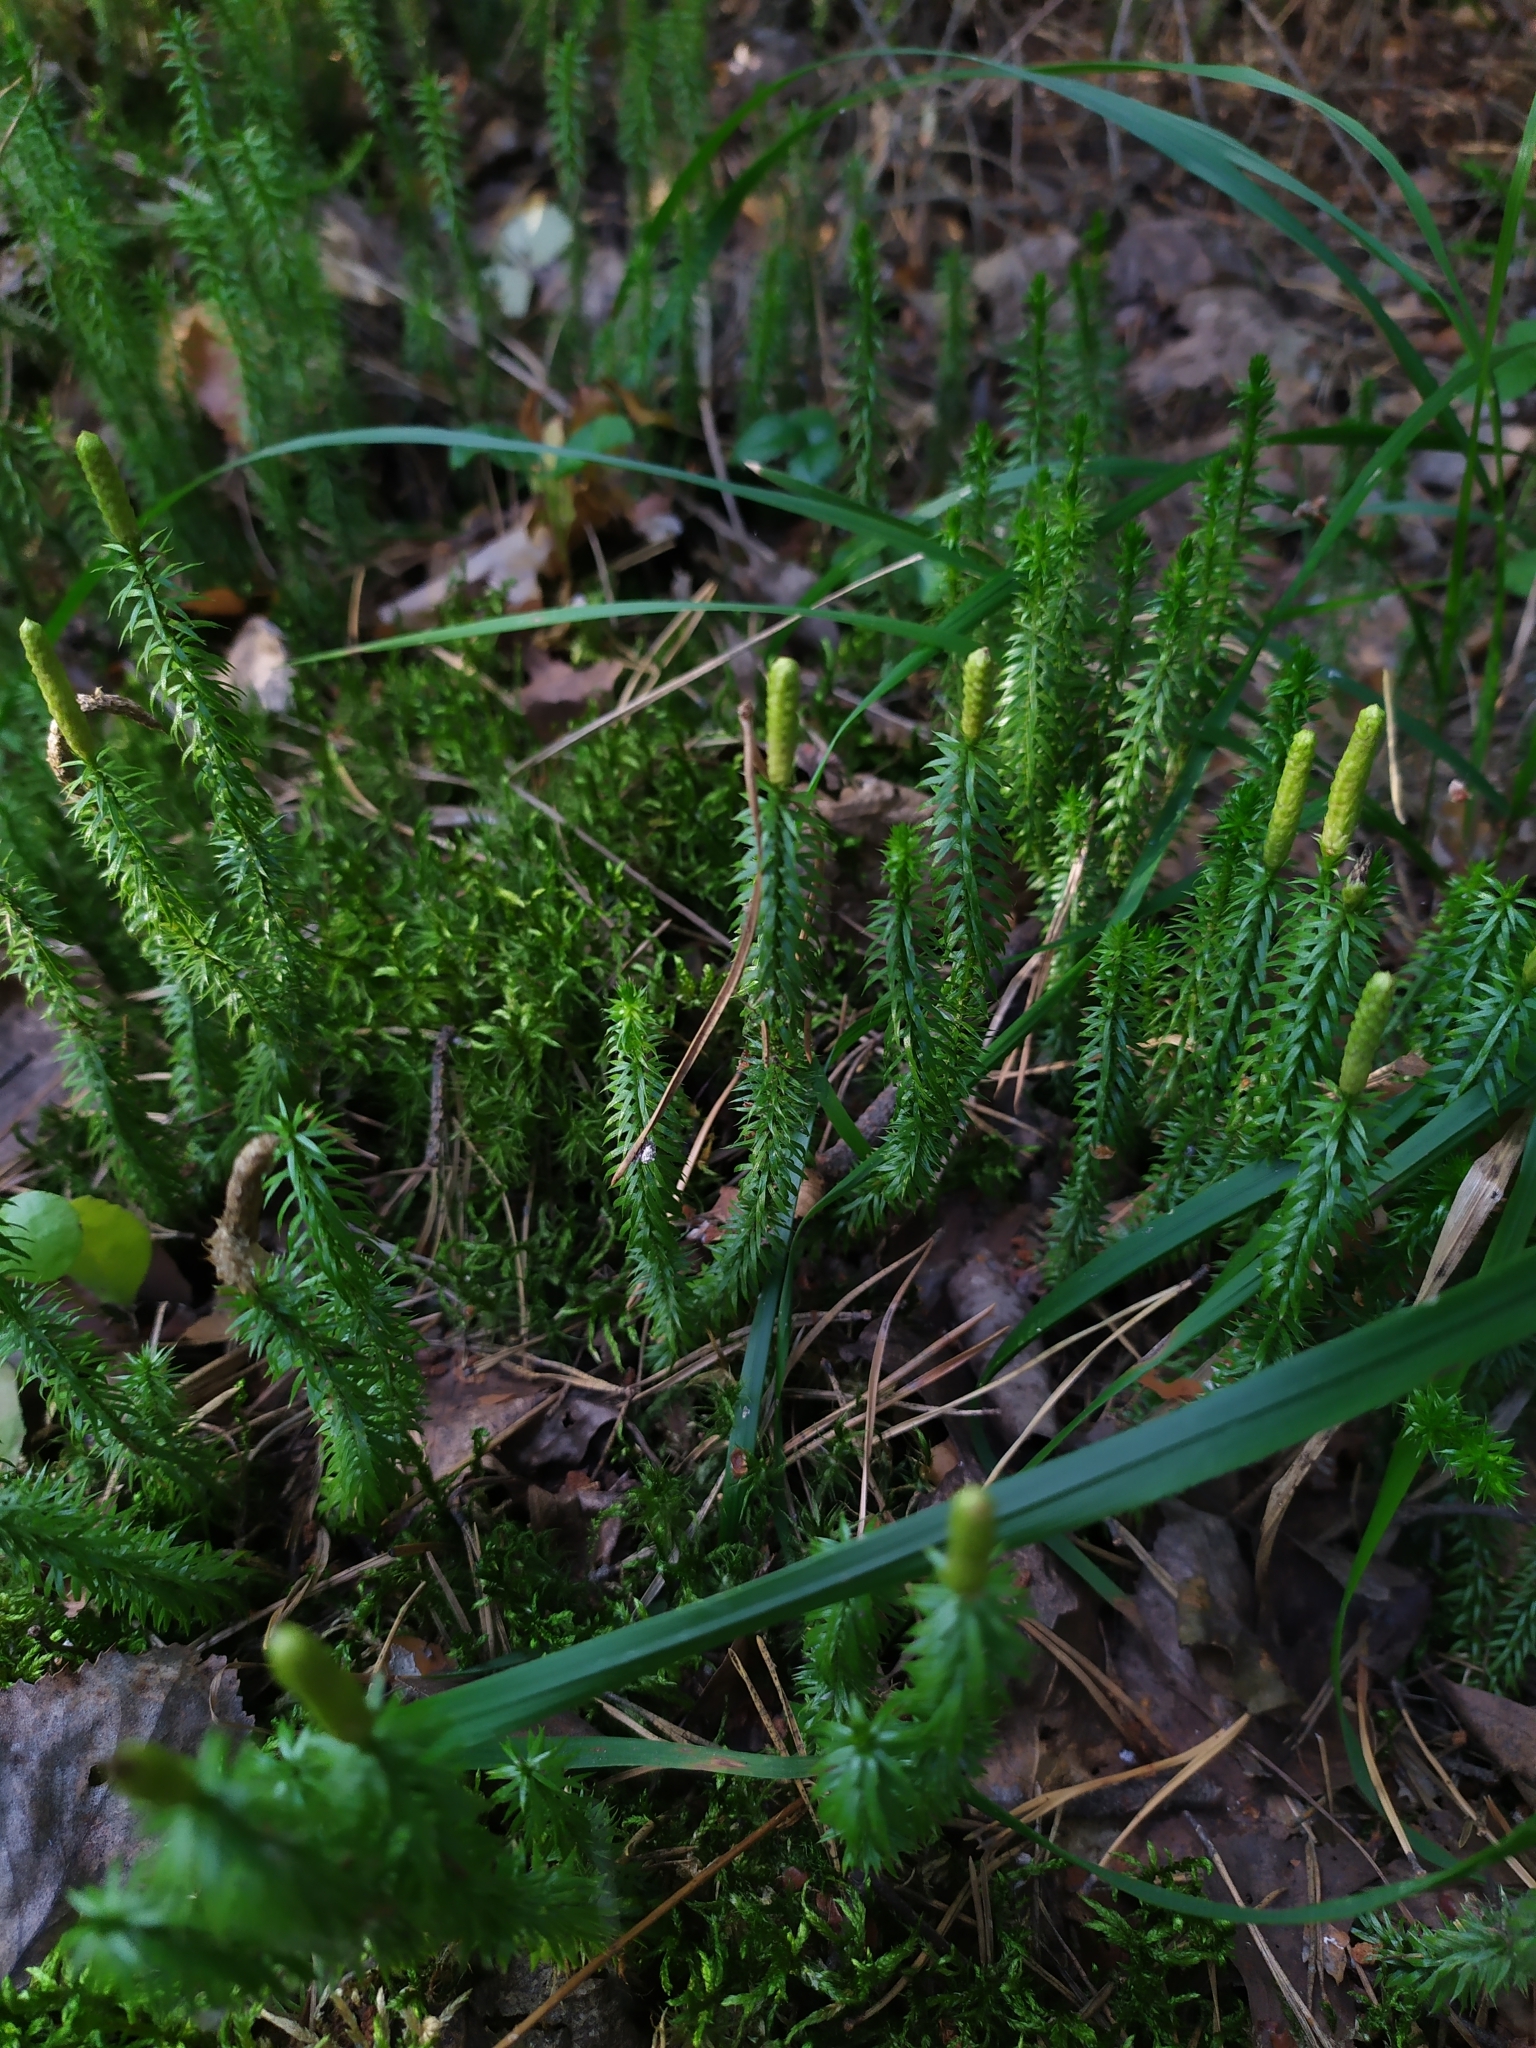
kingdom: Plantae
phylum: Tracheophyta
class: Lycopodiopsida
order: Lycopodiales
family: Lycopodiaceae
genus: Spinulum
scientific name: Spinulum annotinum
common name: Interrupted club-moss
